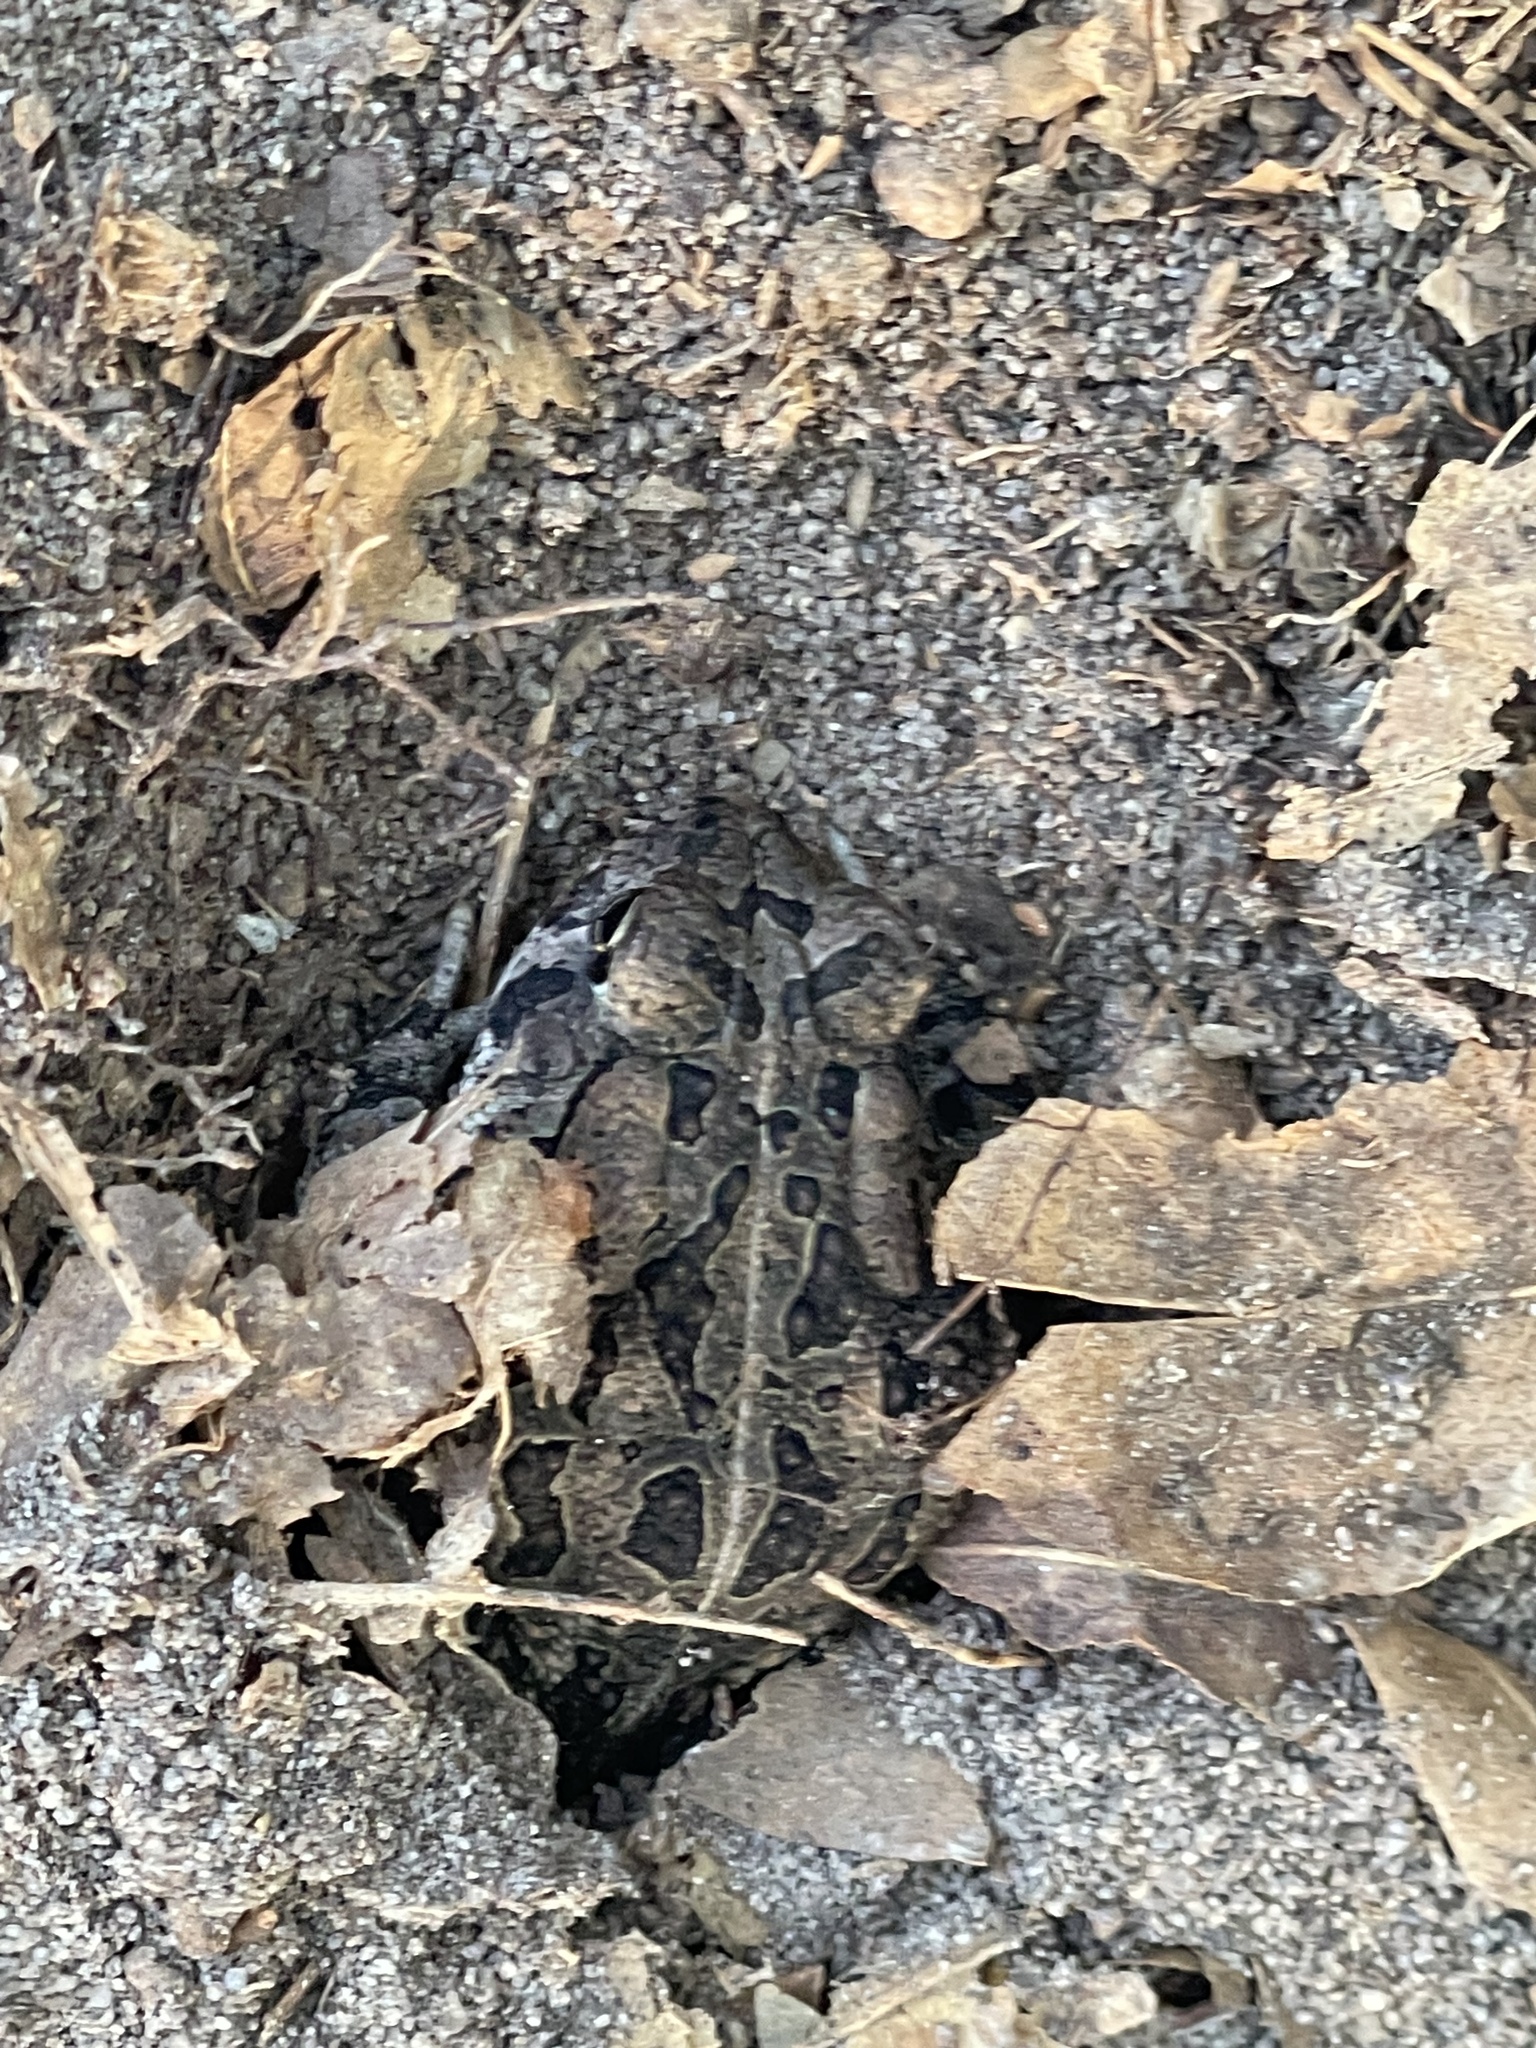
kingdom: Animalia
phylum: Chordata
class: Amphibia
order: Anura
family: Bufonidae
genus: Anaxyrus
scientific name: Anaxyrus fowleri
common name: Fowler's toad
